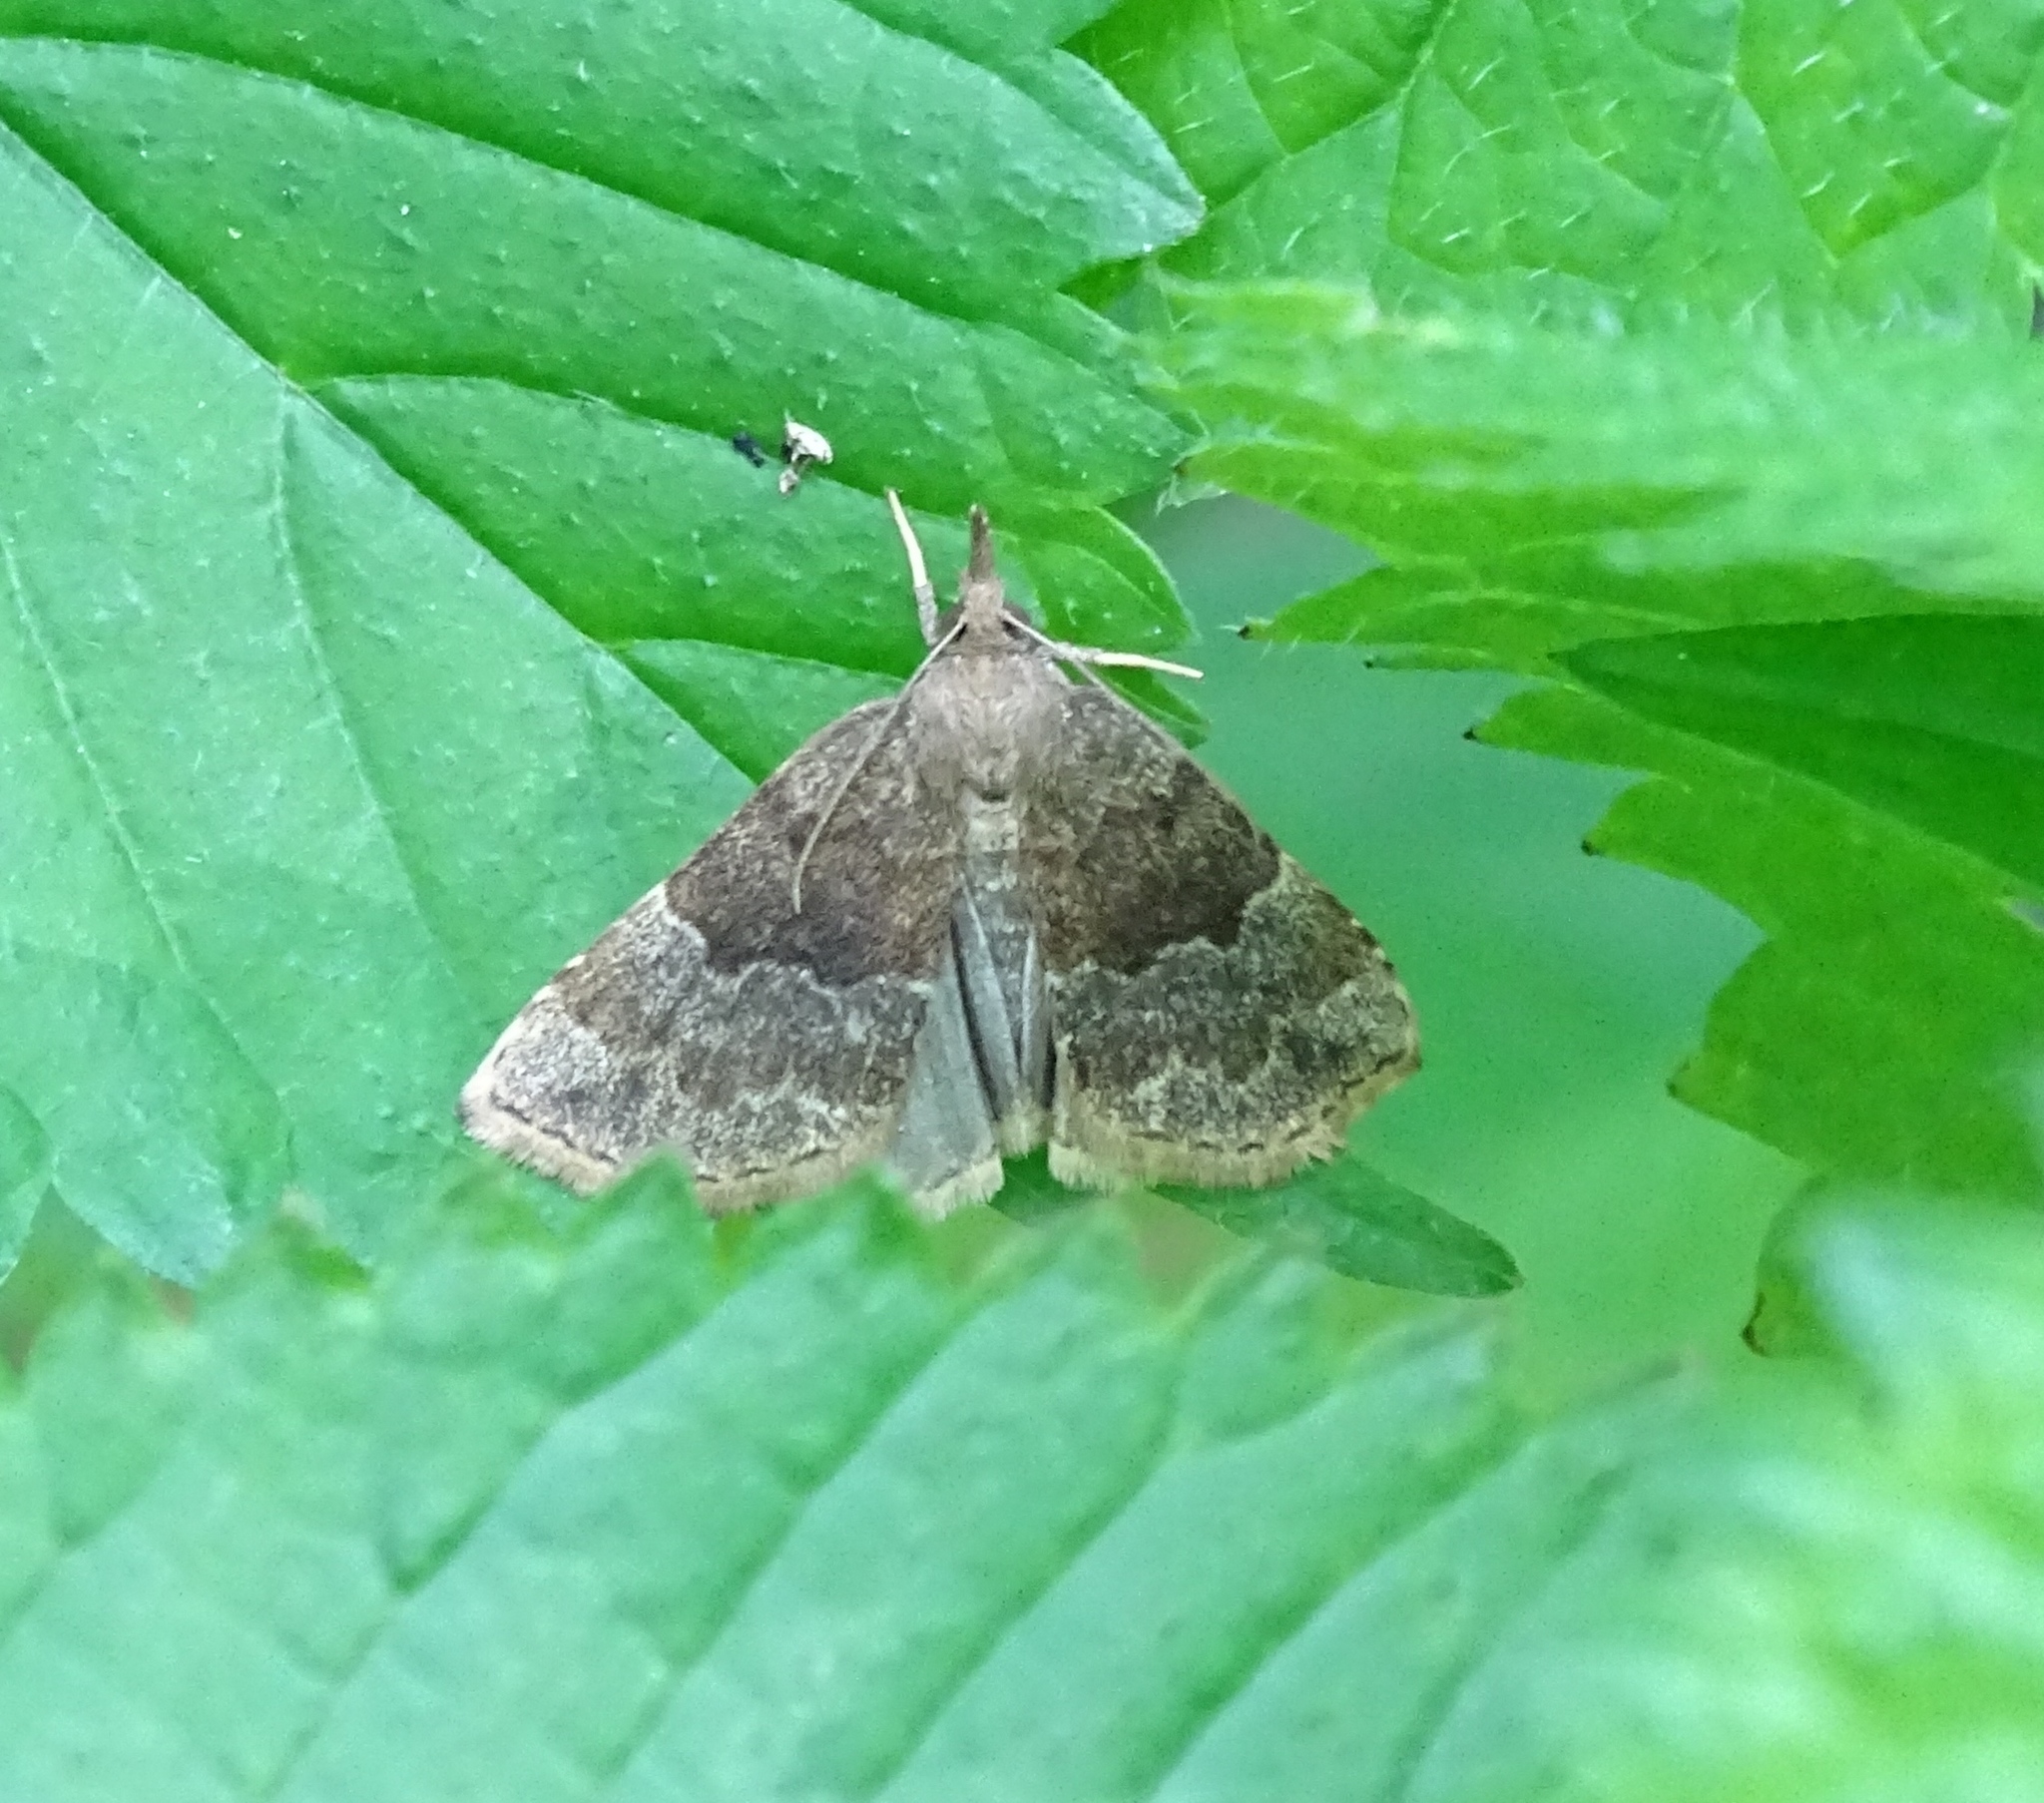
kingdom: Animalia
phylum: Arthropoda
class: Insecta
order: Lepidoptera
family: Erebidae
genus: Hypena
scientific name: Hypena madefactalis
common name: Gray-edged snout
